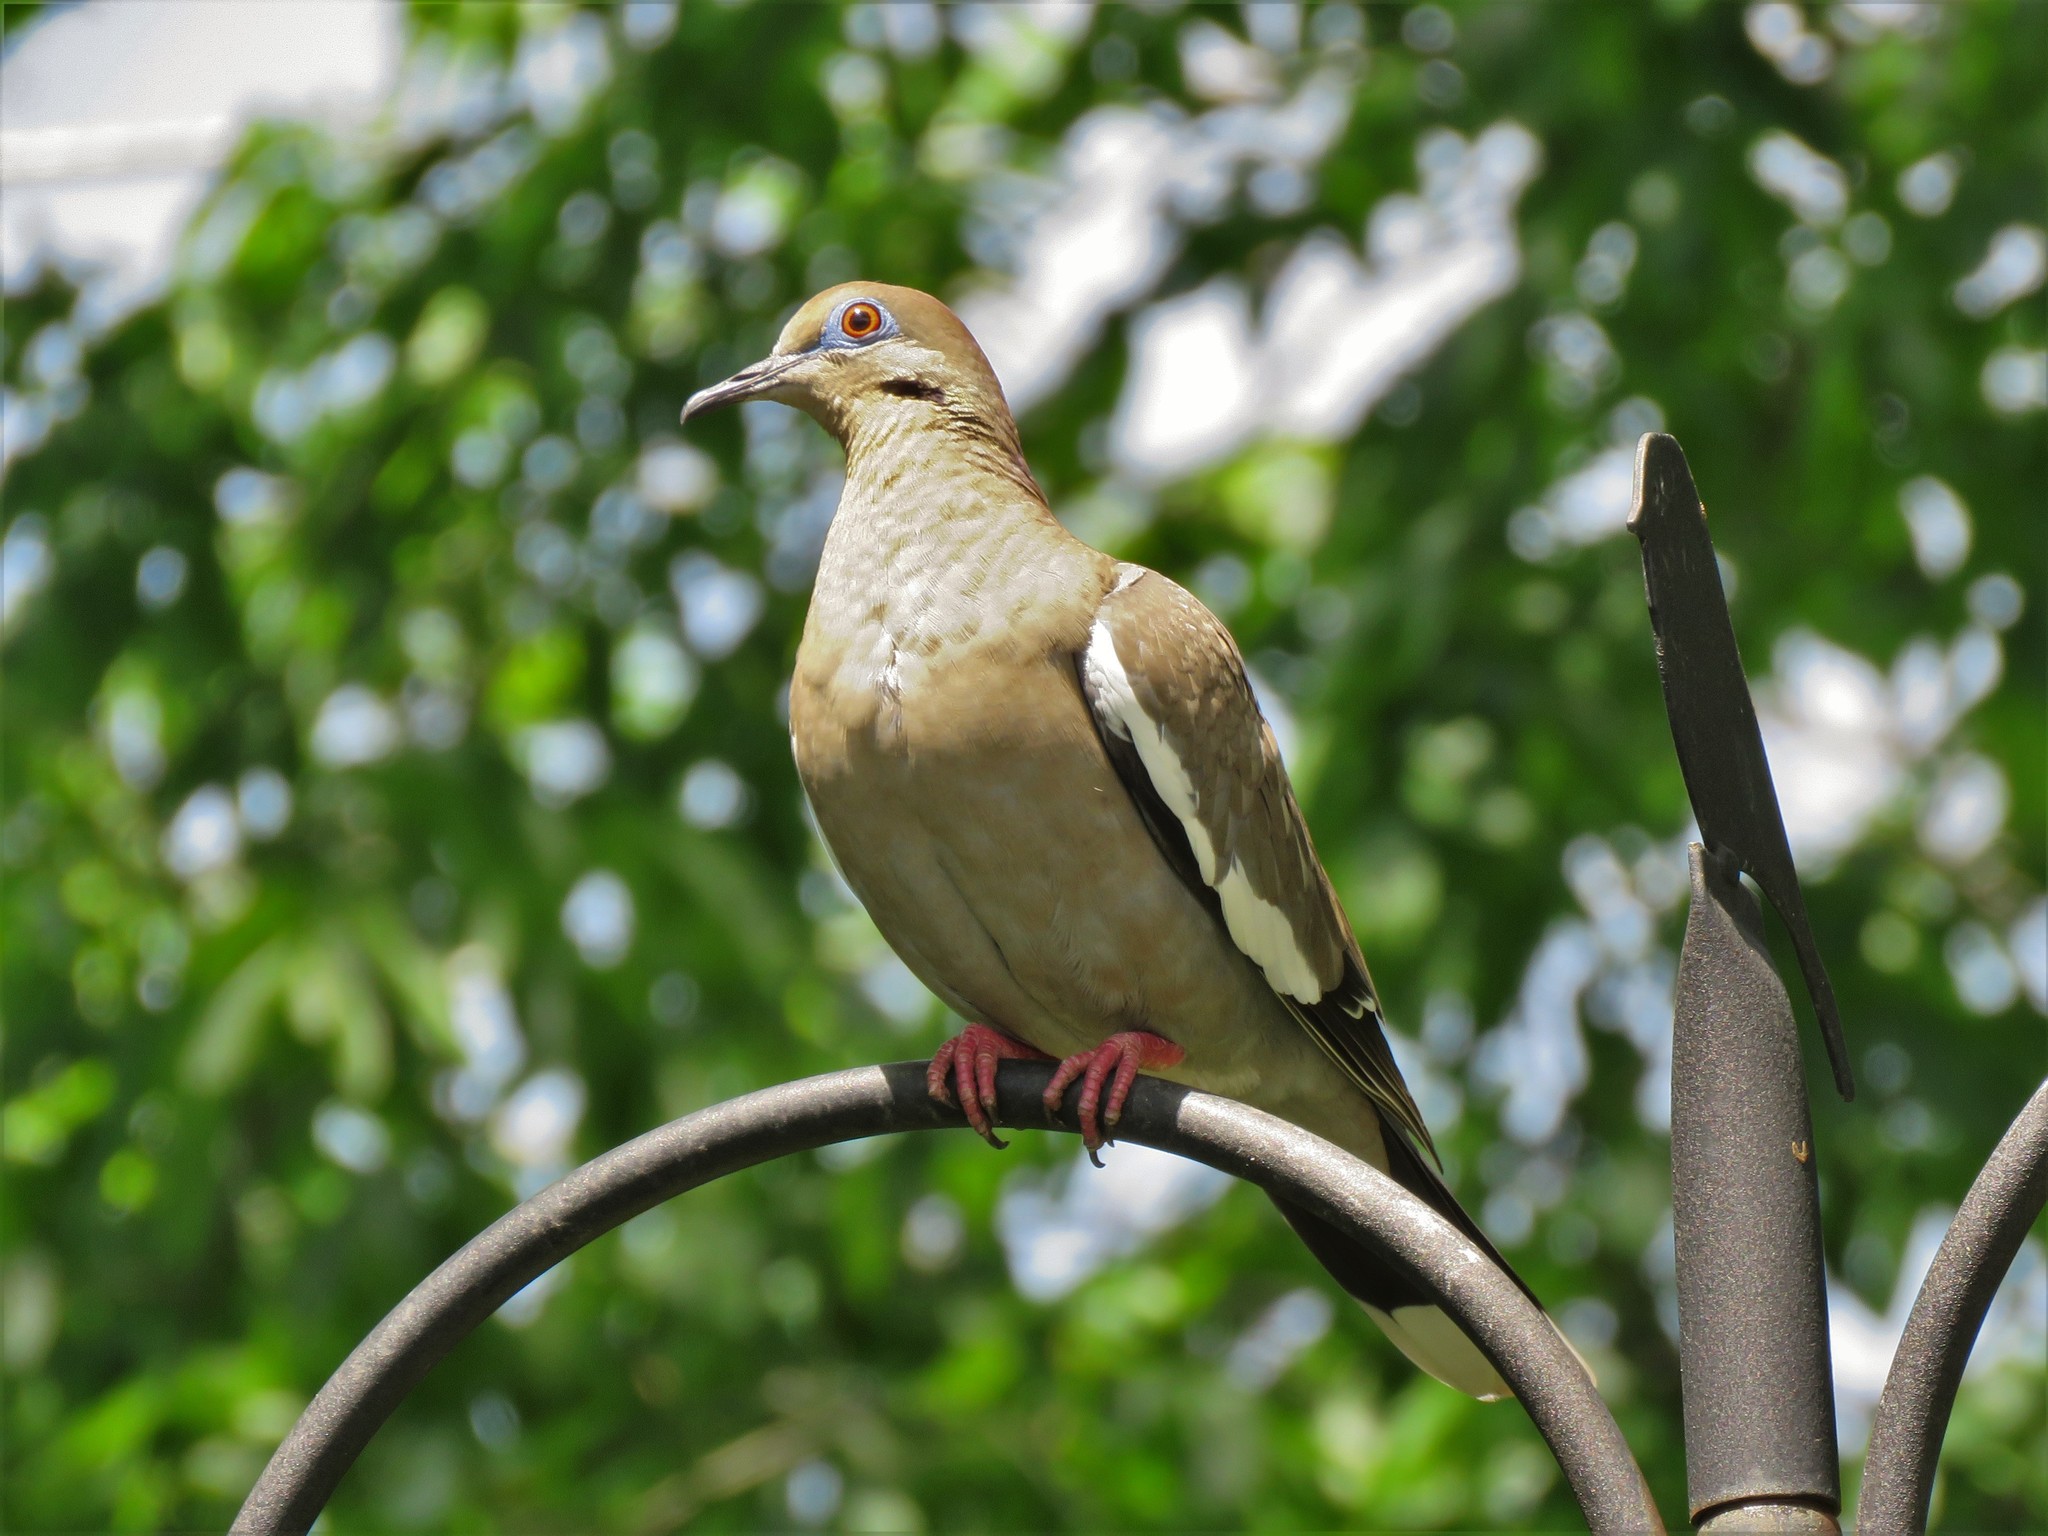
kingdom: Animalia
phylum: Chordata
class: Aves
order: Columbiformes
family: Columbidae
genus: Zenaida
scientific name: Zenaida asiatica
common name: White-winged dove
